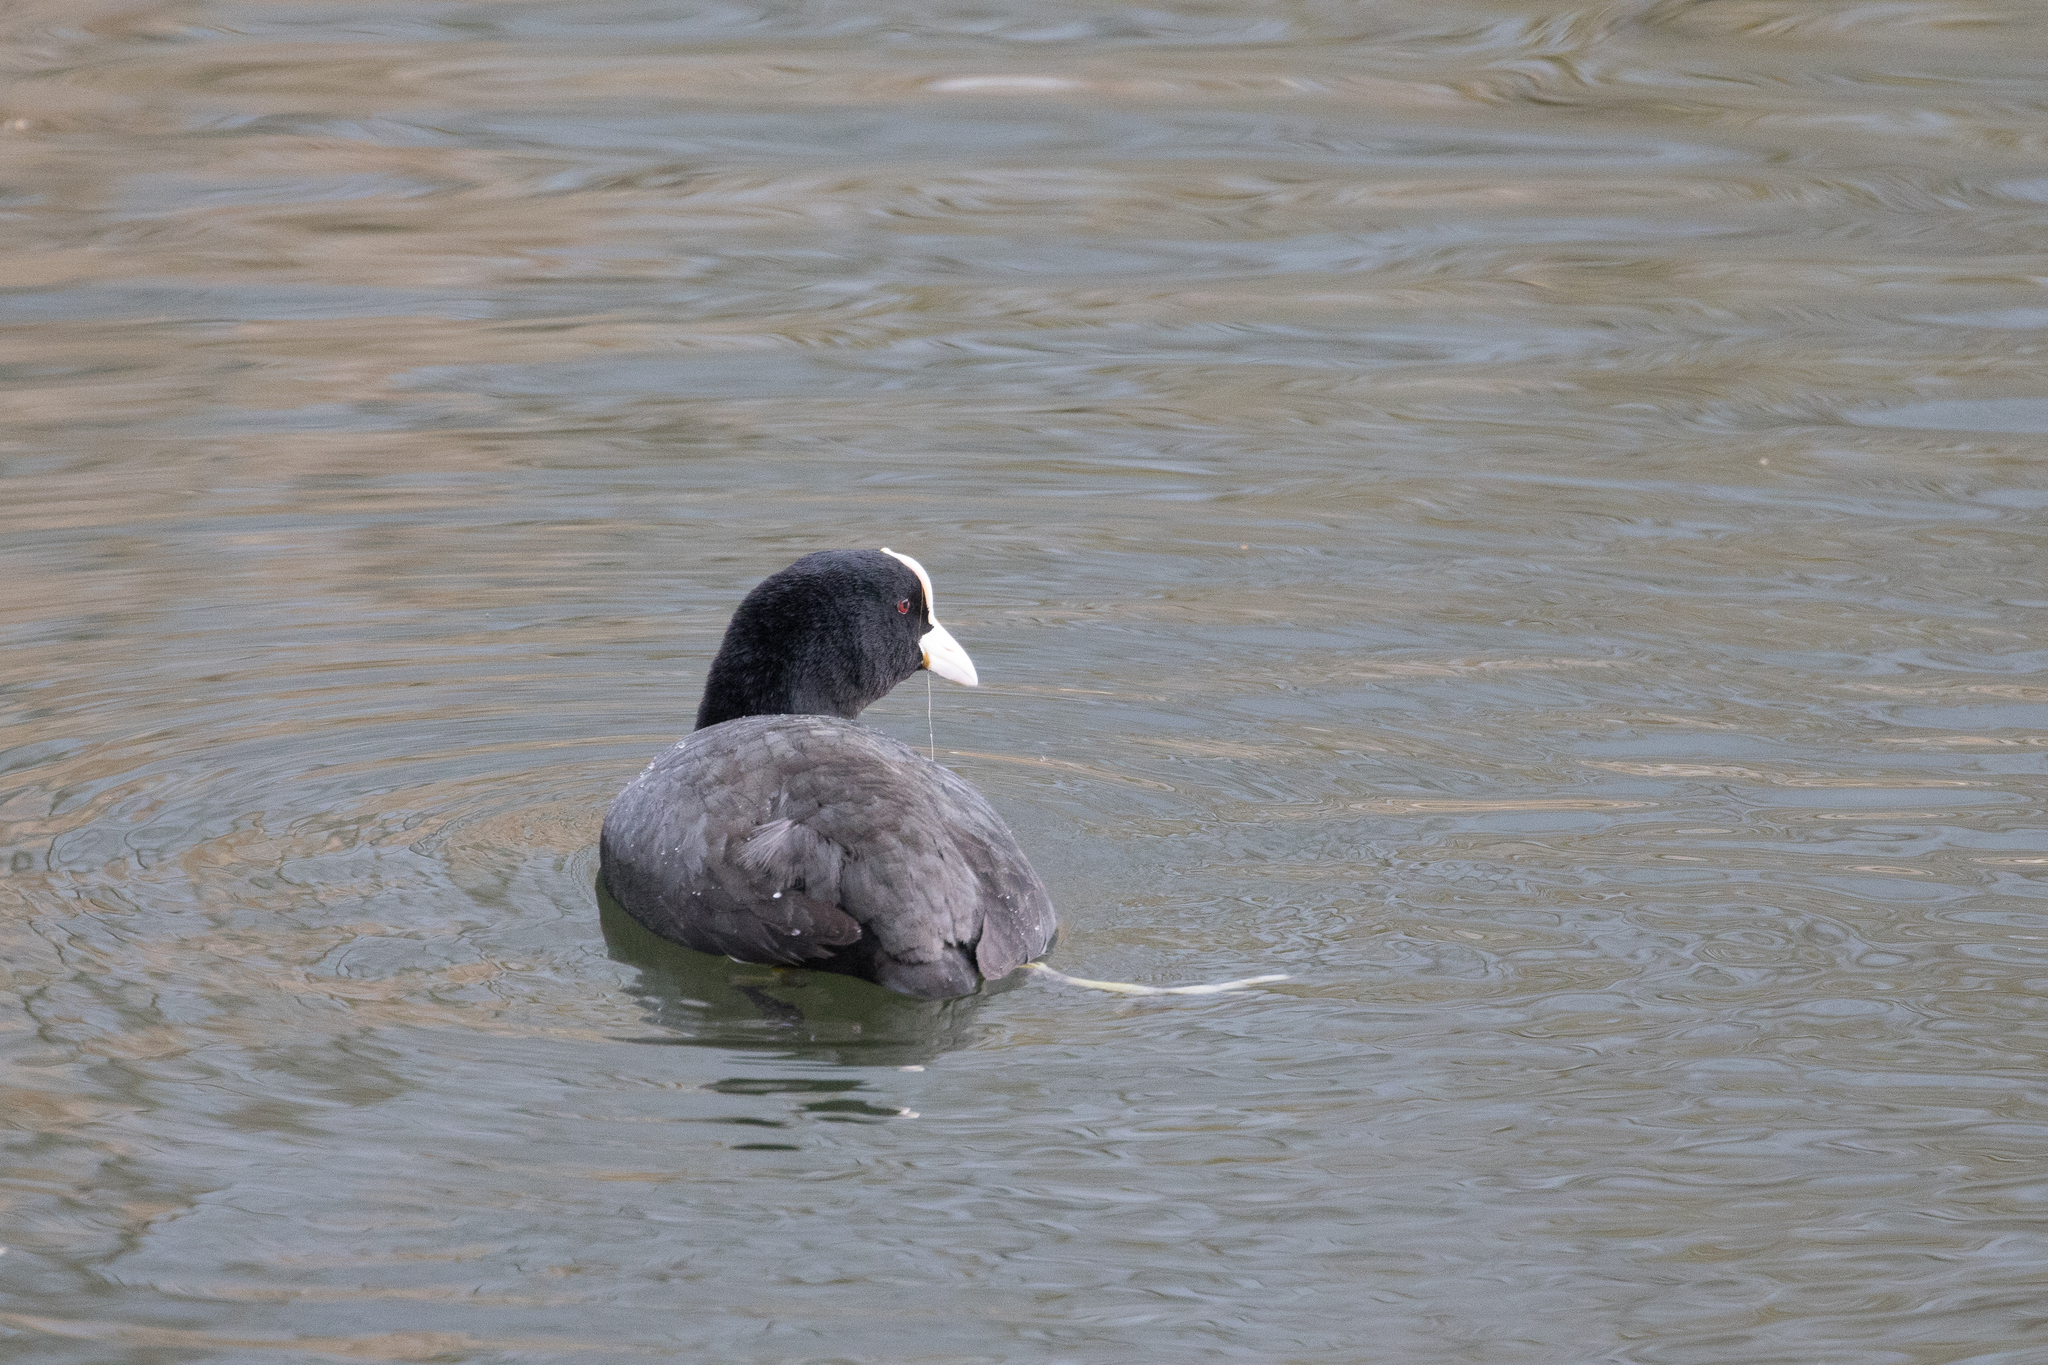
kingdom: Animalia
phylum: Chordata
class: Aves
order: Gruiformes
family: Rallidae
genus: Fulica
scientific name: Fulica atra
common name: Eurasian coot
